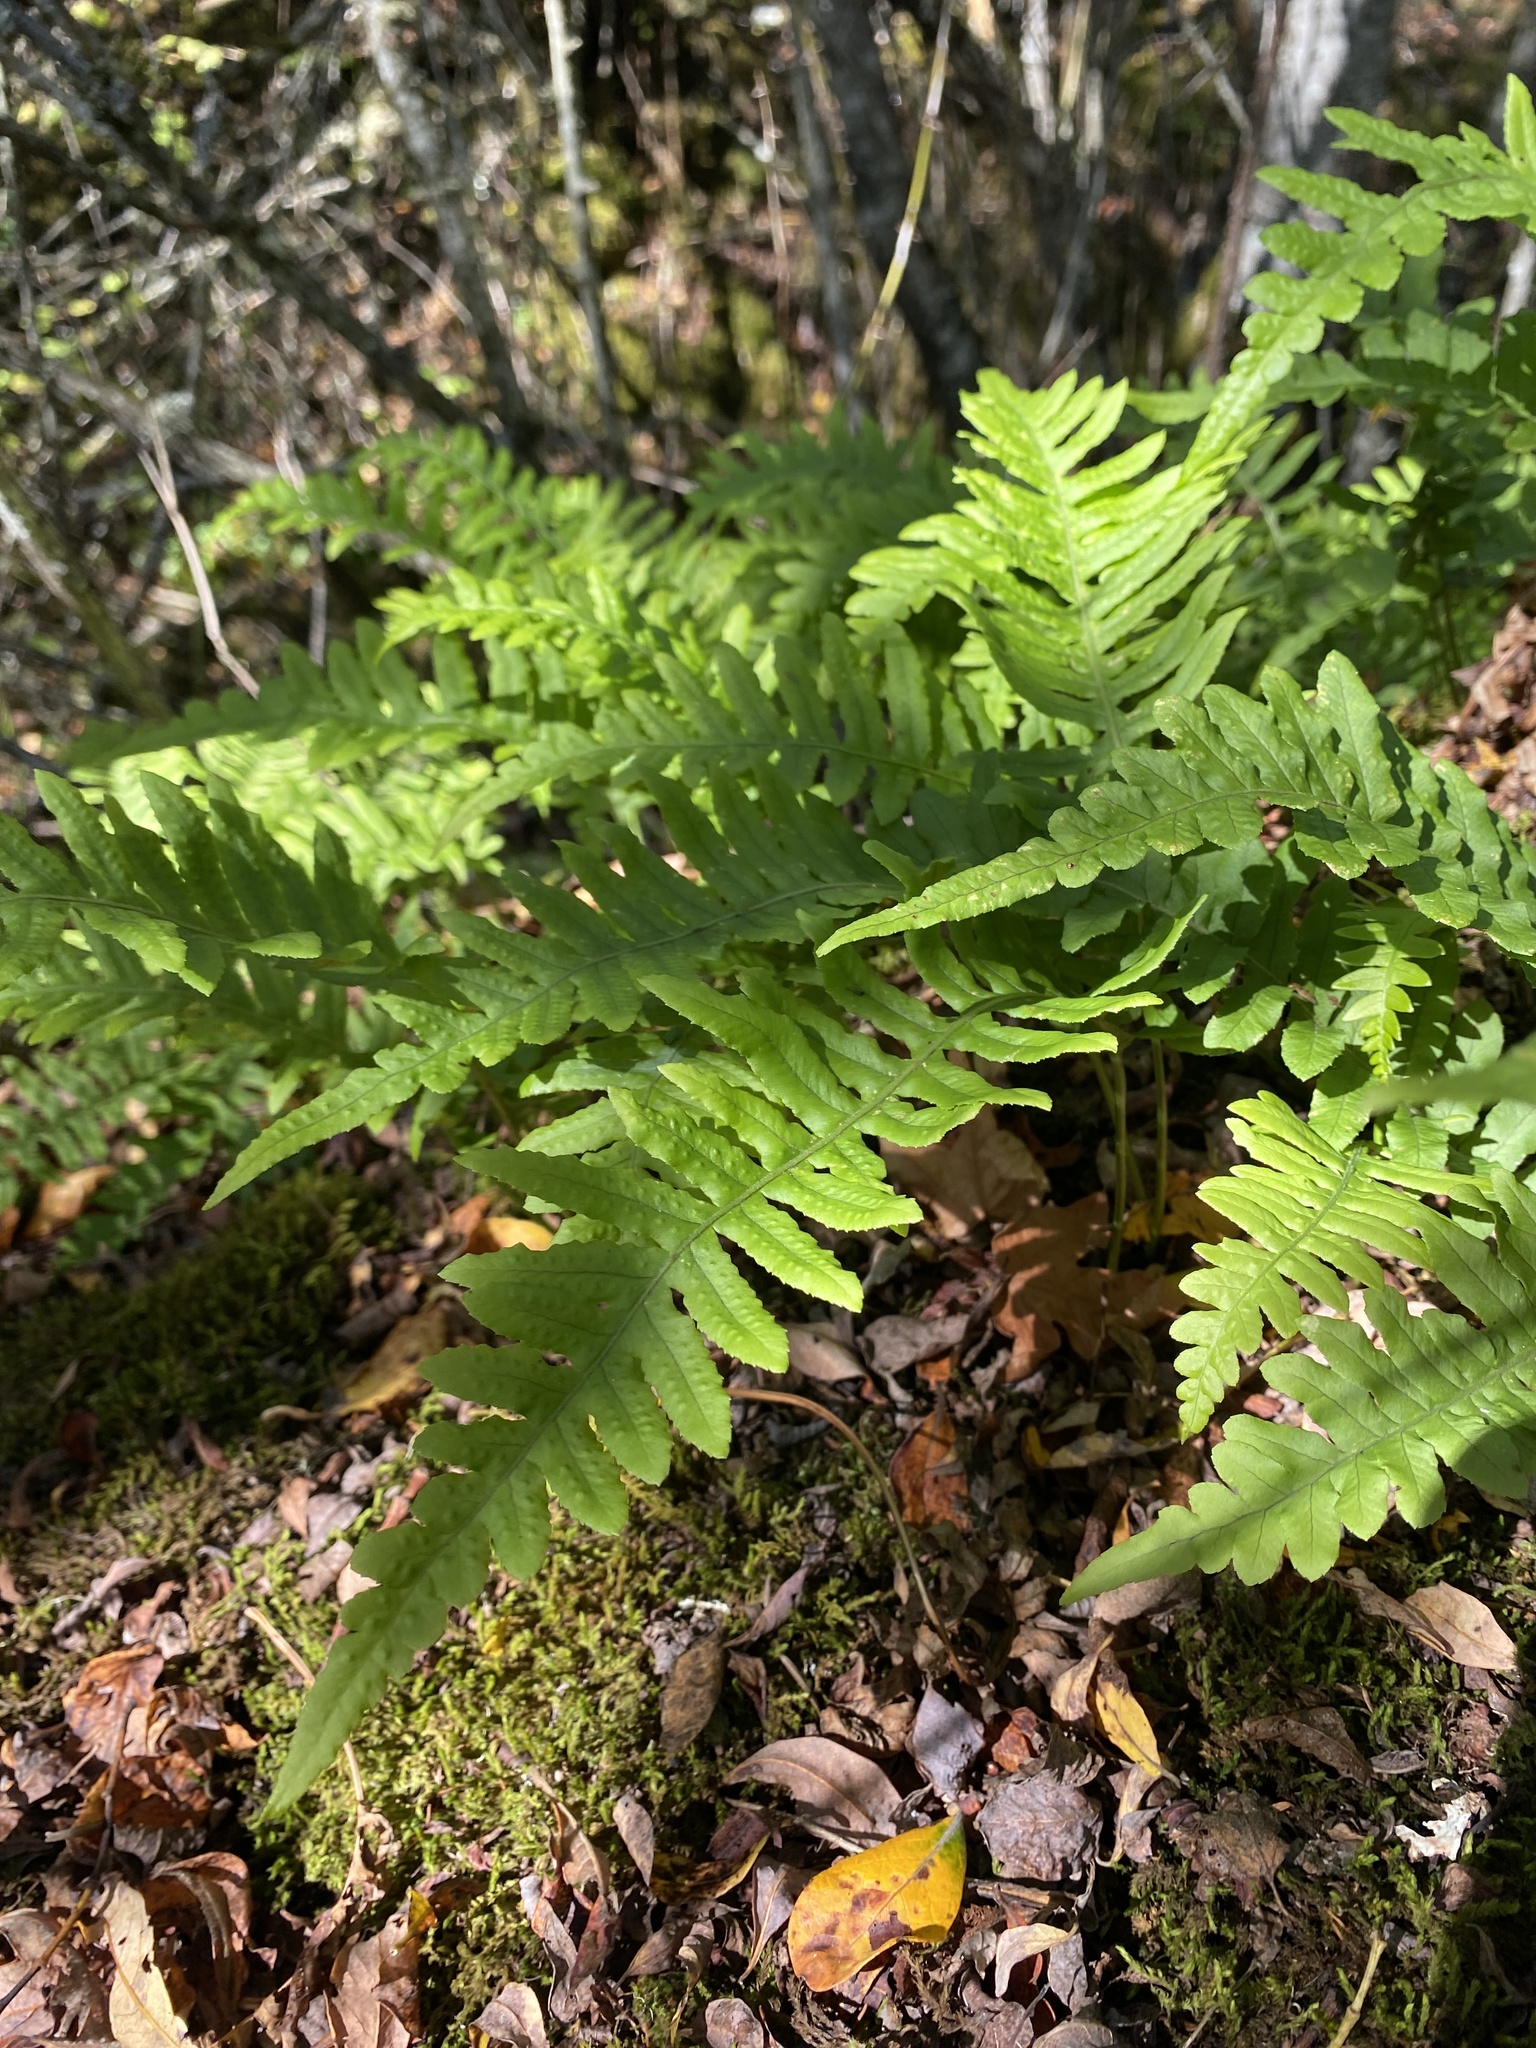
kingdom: Plantae
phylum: Tracheophyta
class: Polypodiopsida
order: Polypodiales
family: Polypodiaceae
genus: Polypodium
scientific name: Polypodium glycyrrhiza
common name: Licorice fern
